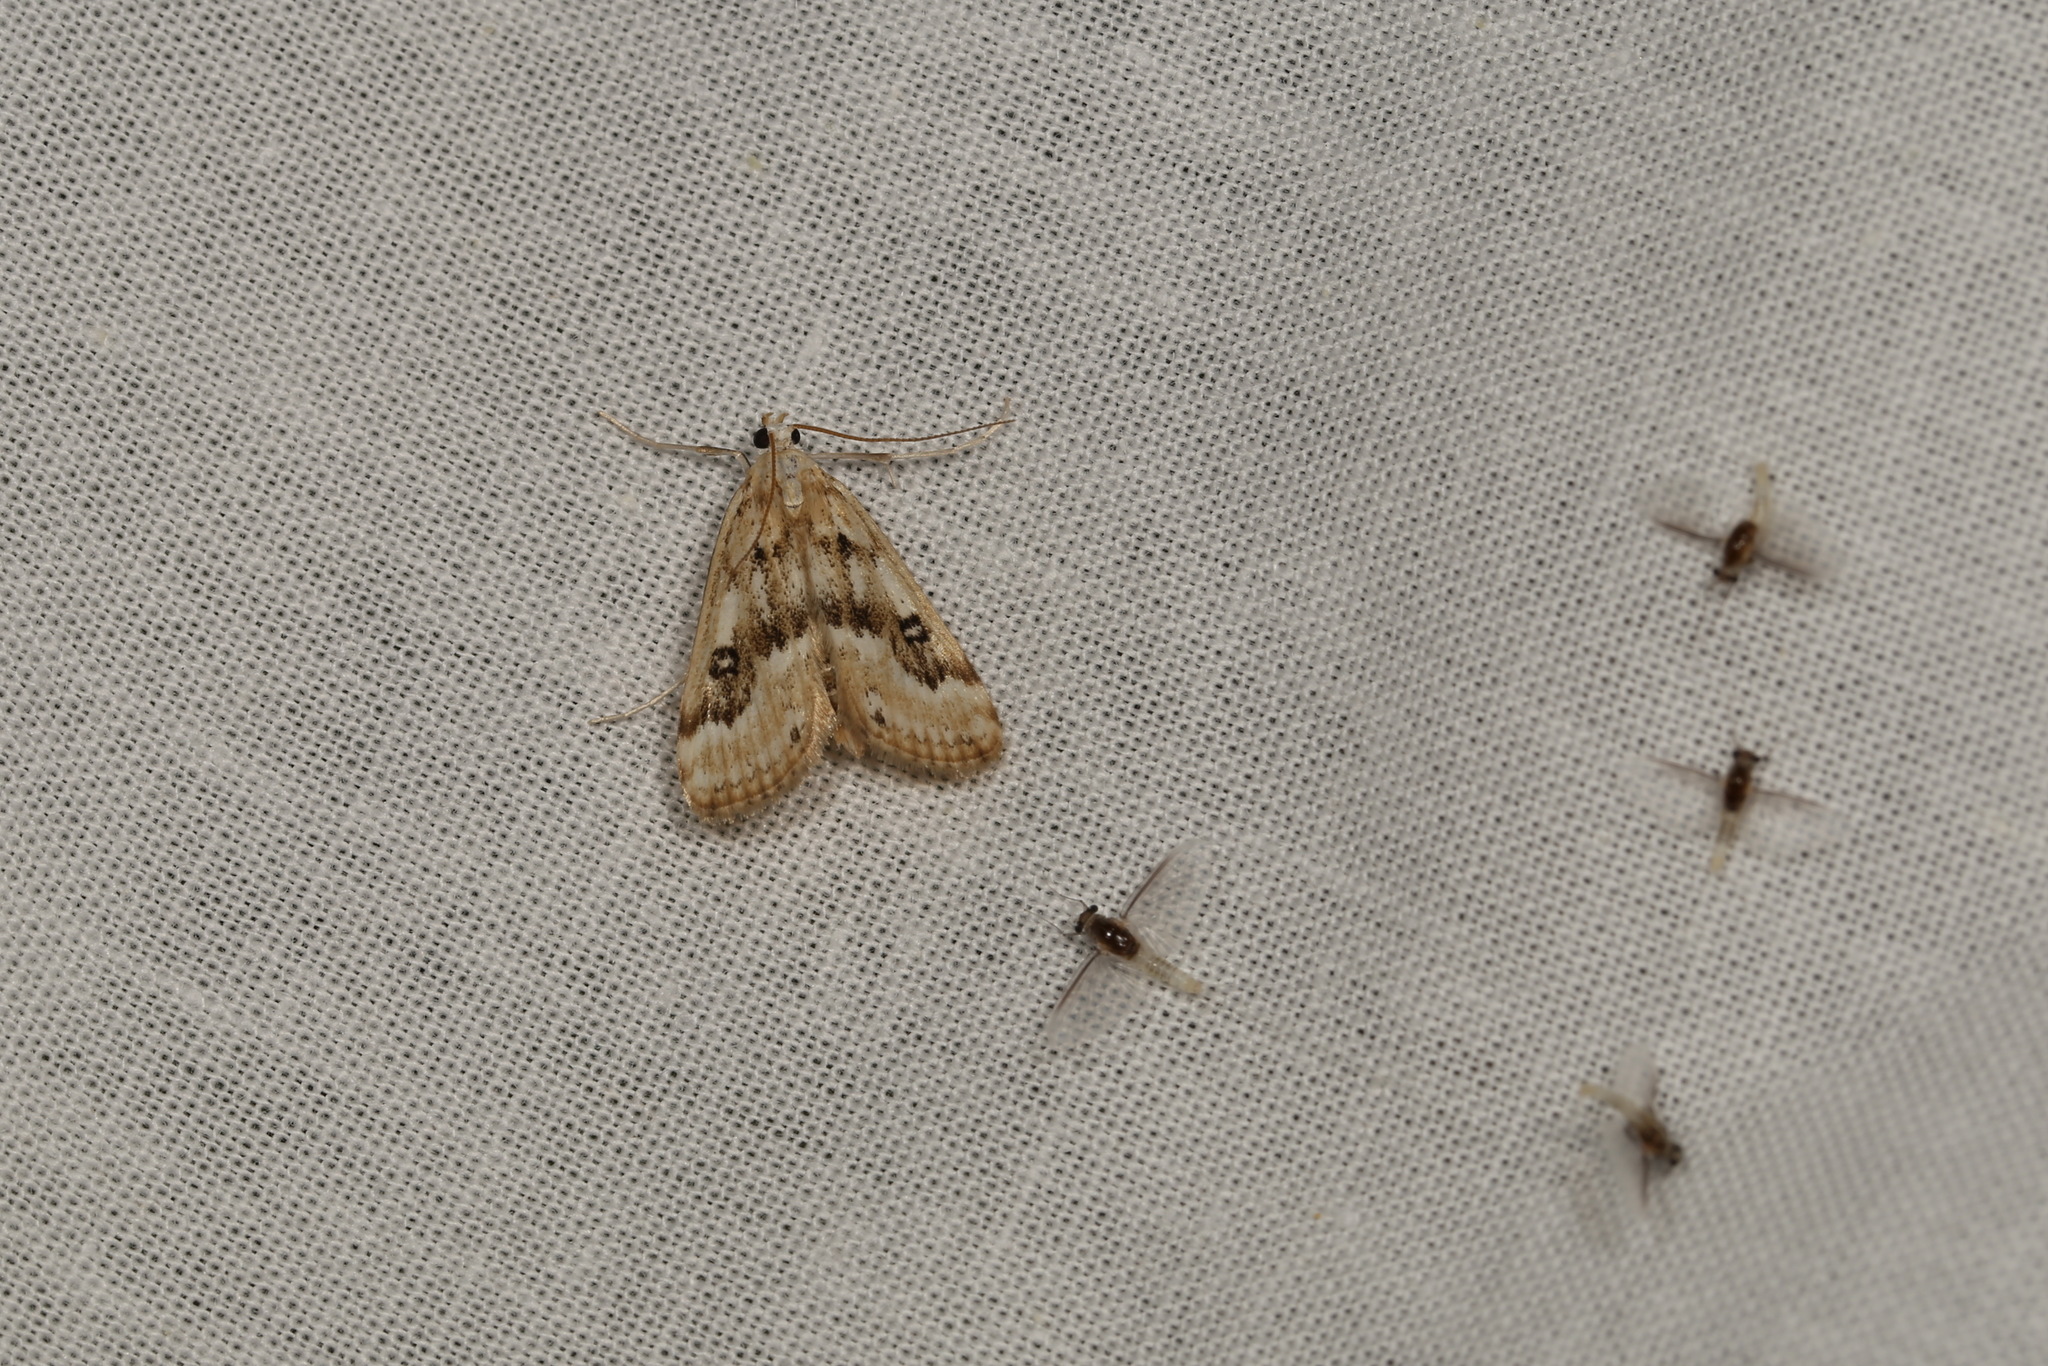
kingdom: Animalia
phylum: Arthropoda
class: Insecta
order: Lepidoptera
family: Crambidae
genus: Parapoynx
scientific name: Parapoynx stratiotata
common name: Ringed china-mark
